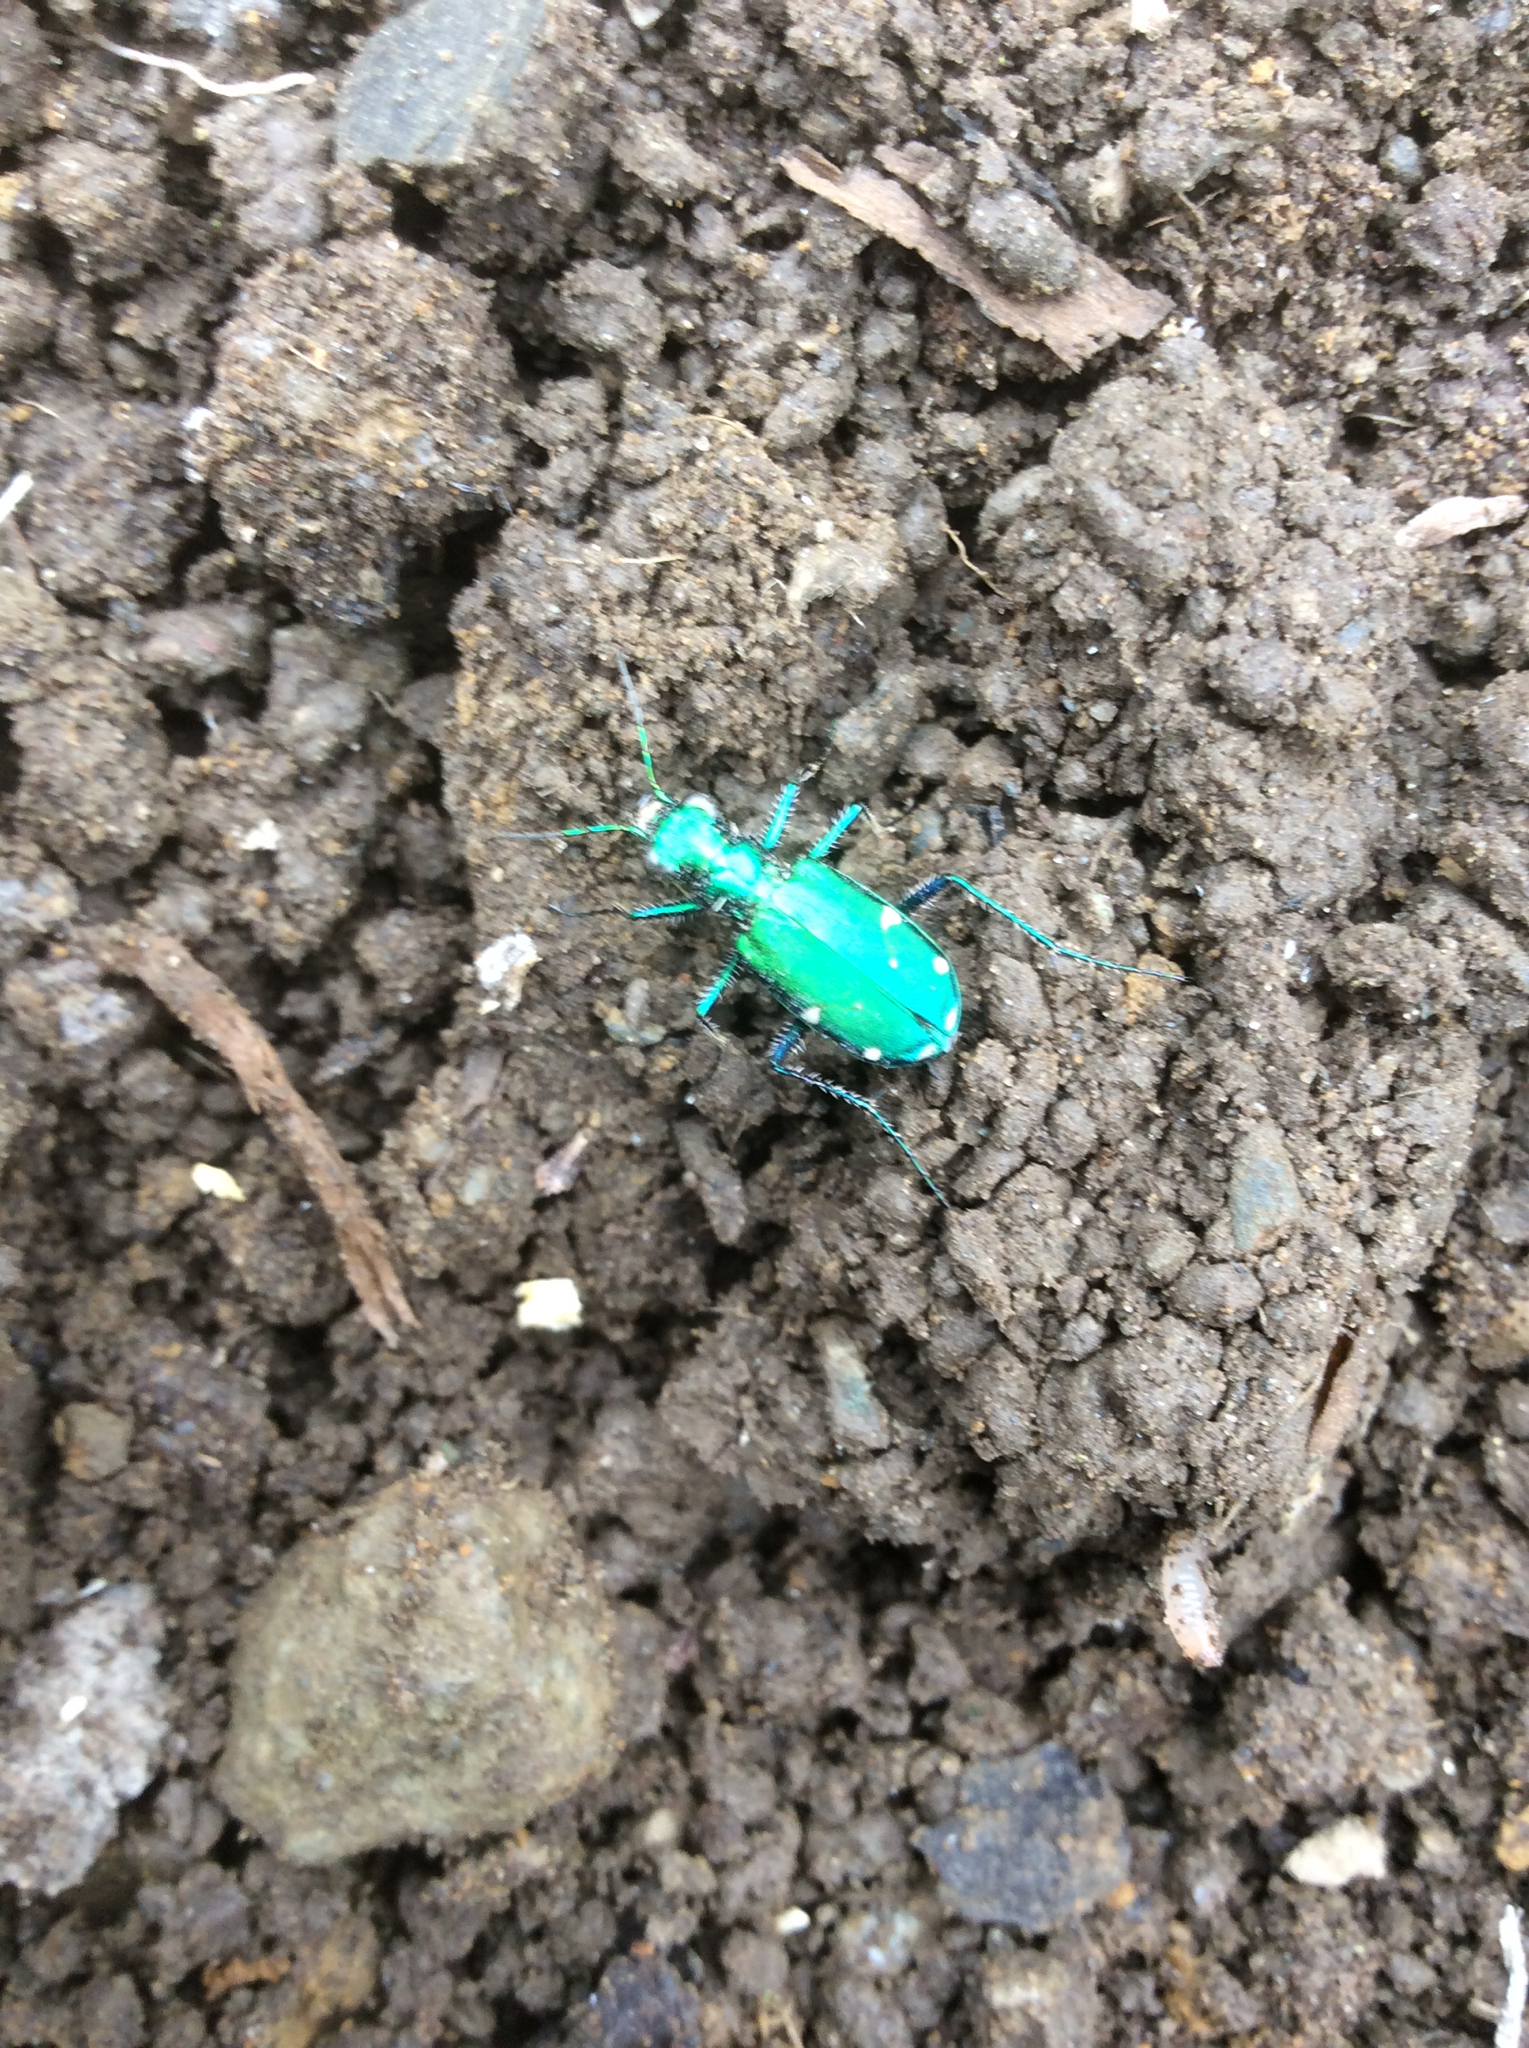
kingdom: Animalia
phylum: Arthropoda
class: Insecta
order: Coleoptera
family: Carabidae
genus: Cicindela
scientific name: Cicindela sexguttata
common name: Six-spotted tiger beetle
